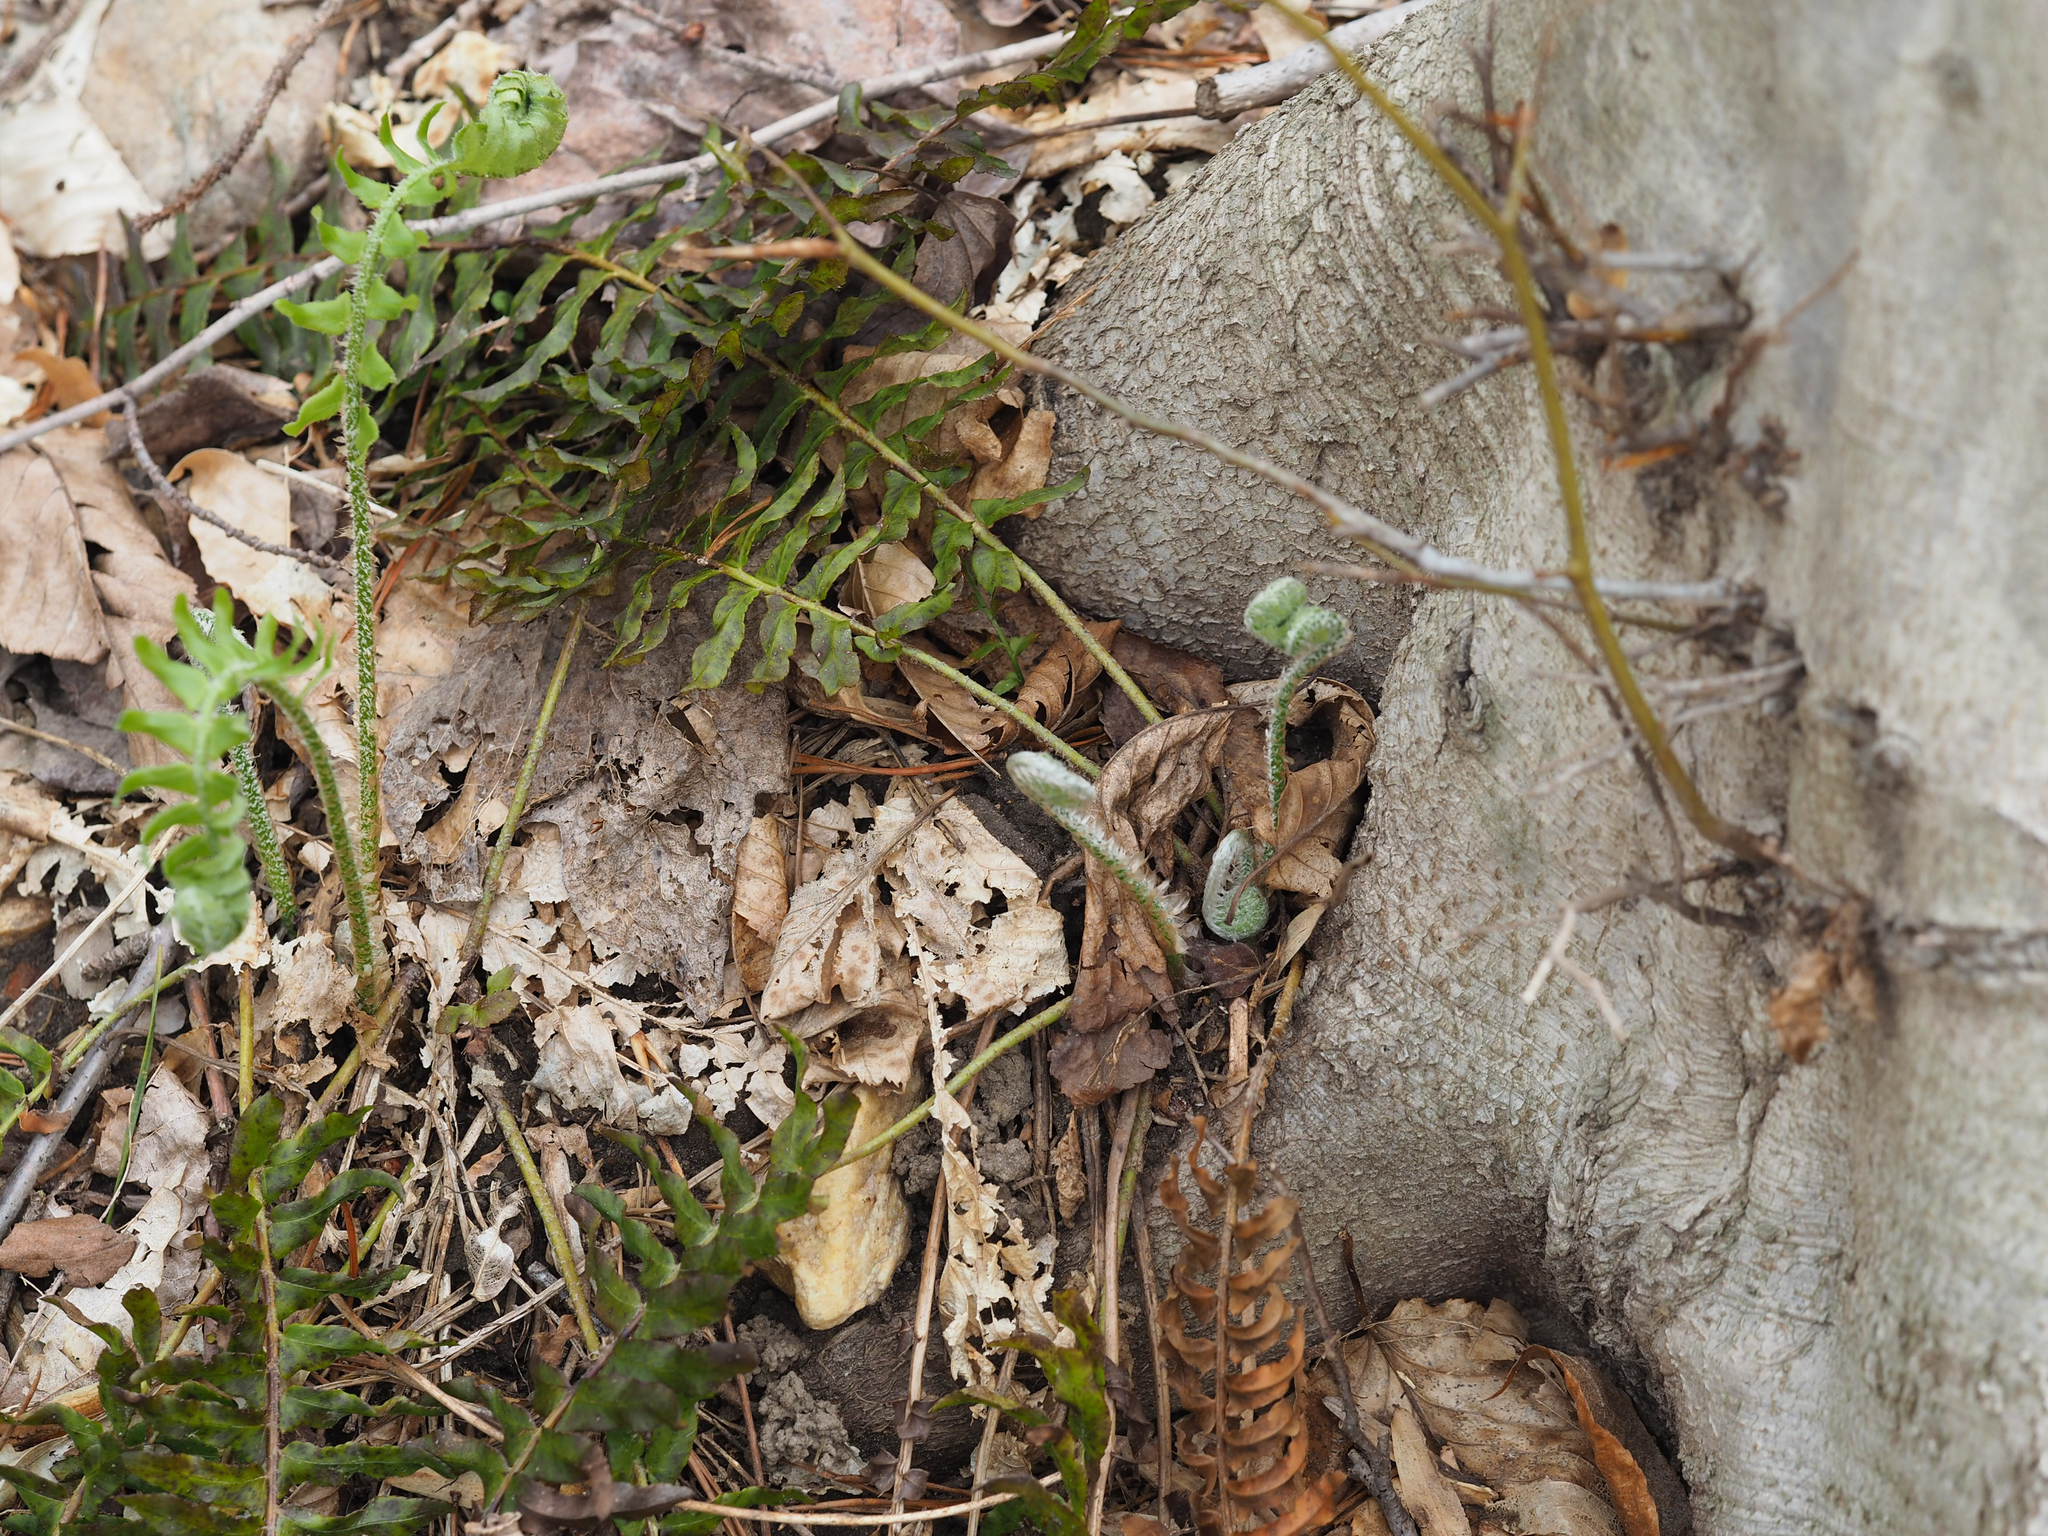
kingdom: Plantae
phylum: Tracheophyta
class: Polypodiopsida
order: Polypodiales
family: Dryopteridaceae
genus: Polystichum
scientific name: Polystichum acrostichoides
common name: Christmas fern
